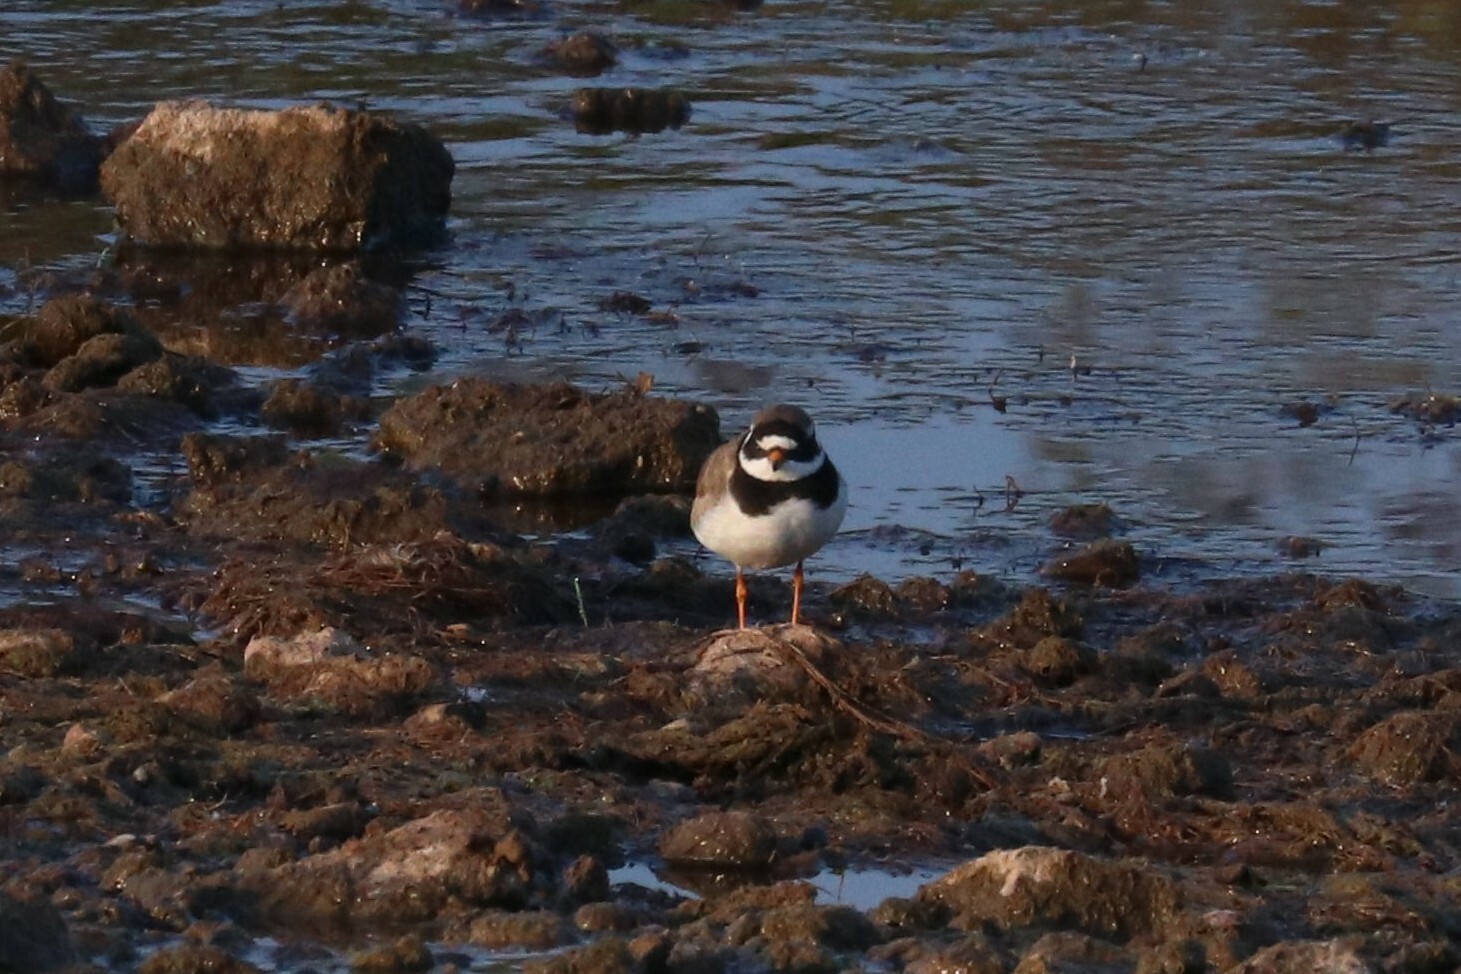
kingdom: Animalia
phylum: Chordata
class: Aves
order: Charadriiformes
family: Charadriidae
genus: Charadrius
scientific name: Charadrius hiaticula
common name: Common ringed plover
